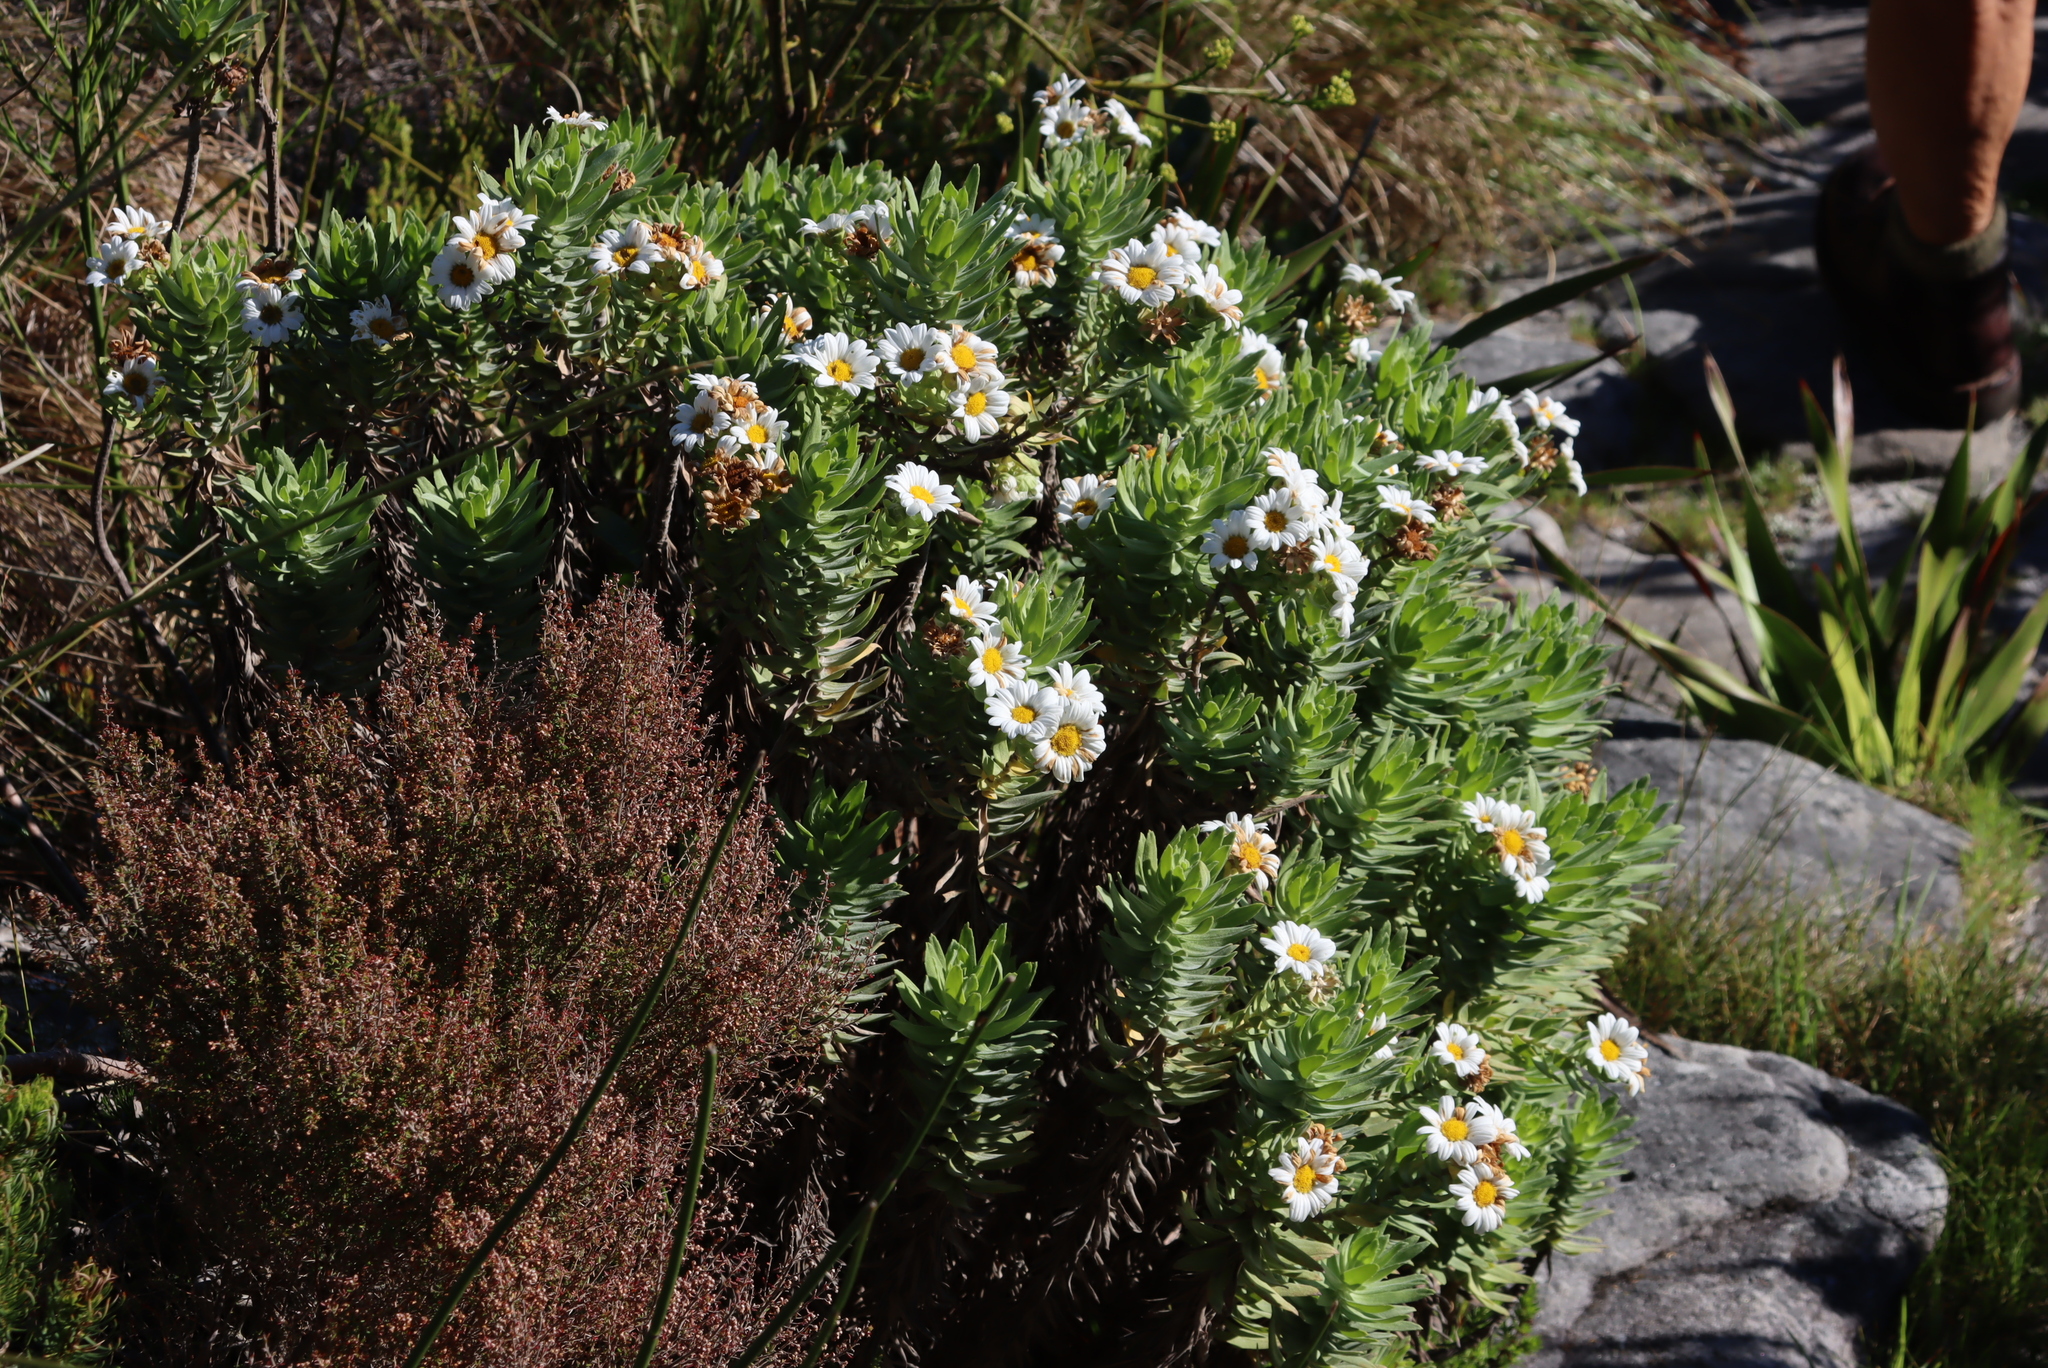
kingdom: Plantae
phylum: Tracheophyta
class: Magnoliopsida
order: Asterales
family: Asteraceae
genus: Osmitopsis
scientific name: Osmitopsis asteriscoides
